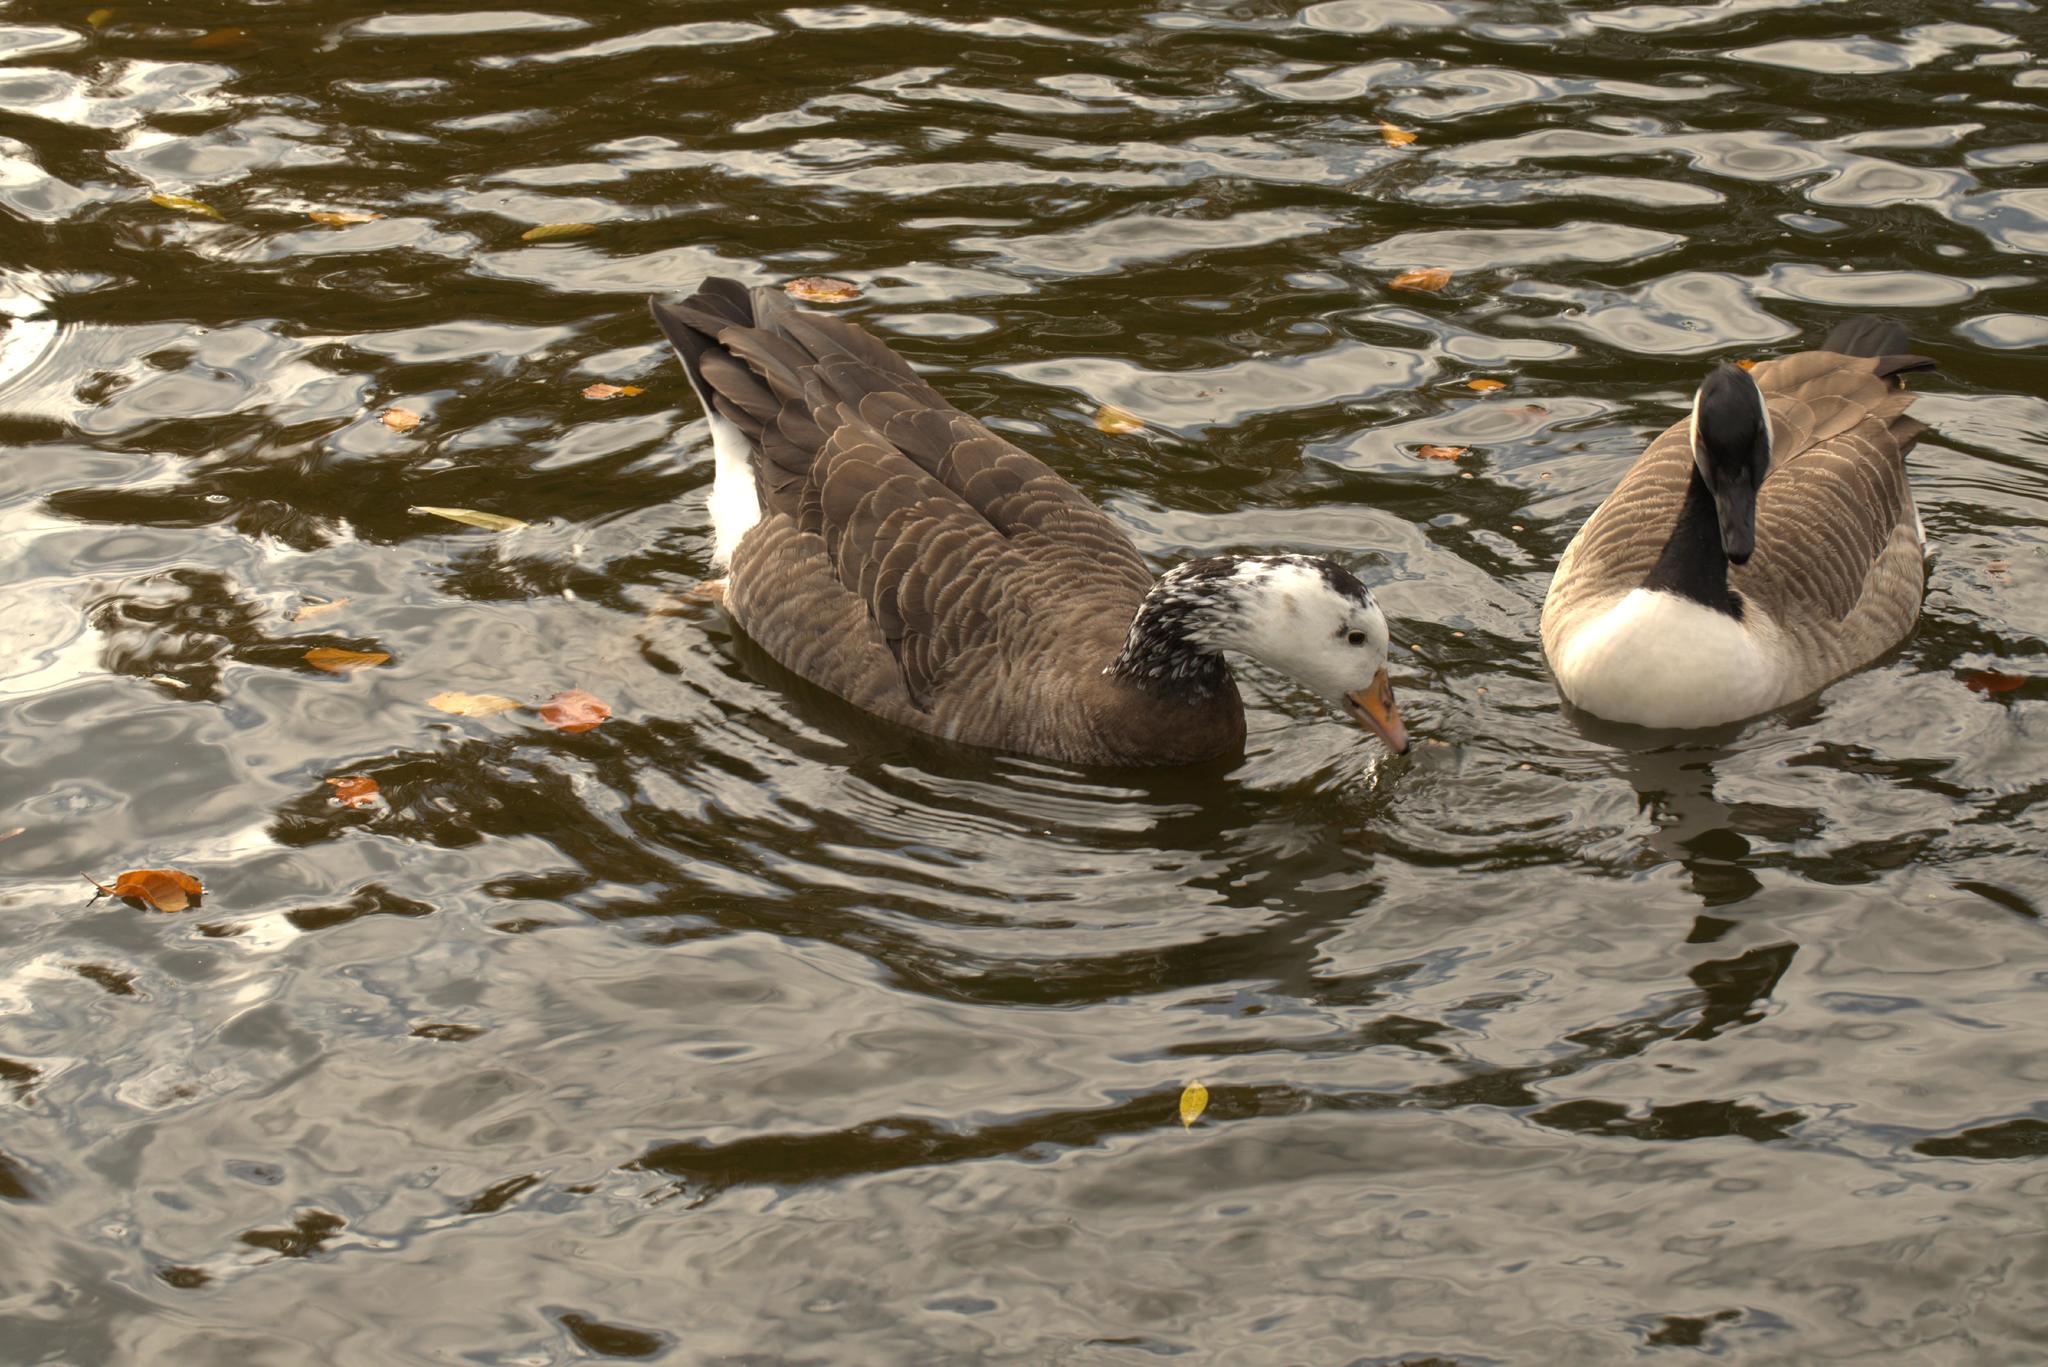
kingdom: Animalia
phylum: Chordata
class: Aves
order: Anseriformes
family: Anatidae
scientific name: Anatidae
